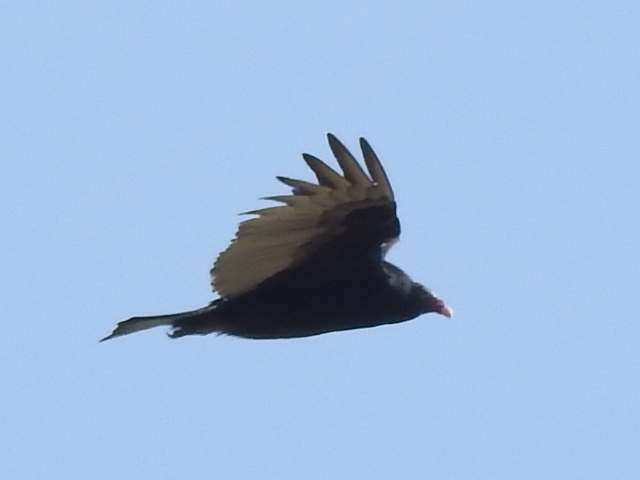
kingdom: Animalia
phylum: Chordata
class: Aves
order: Accipitriformes
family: Cathartidae
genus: Cathartes
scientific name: Cathartes aura
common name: Turkey vulture
